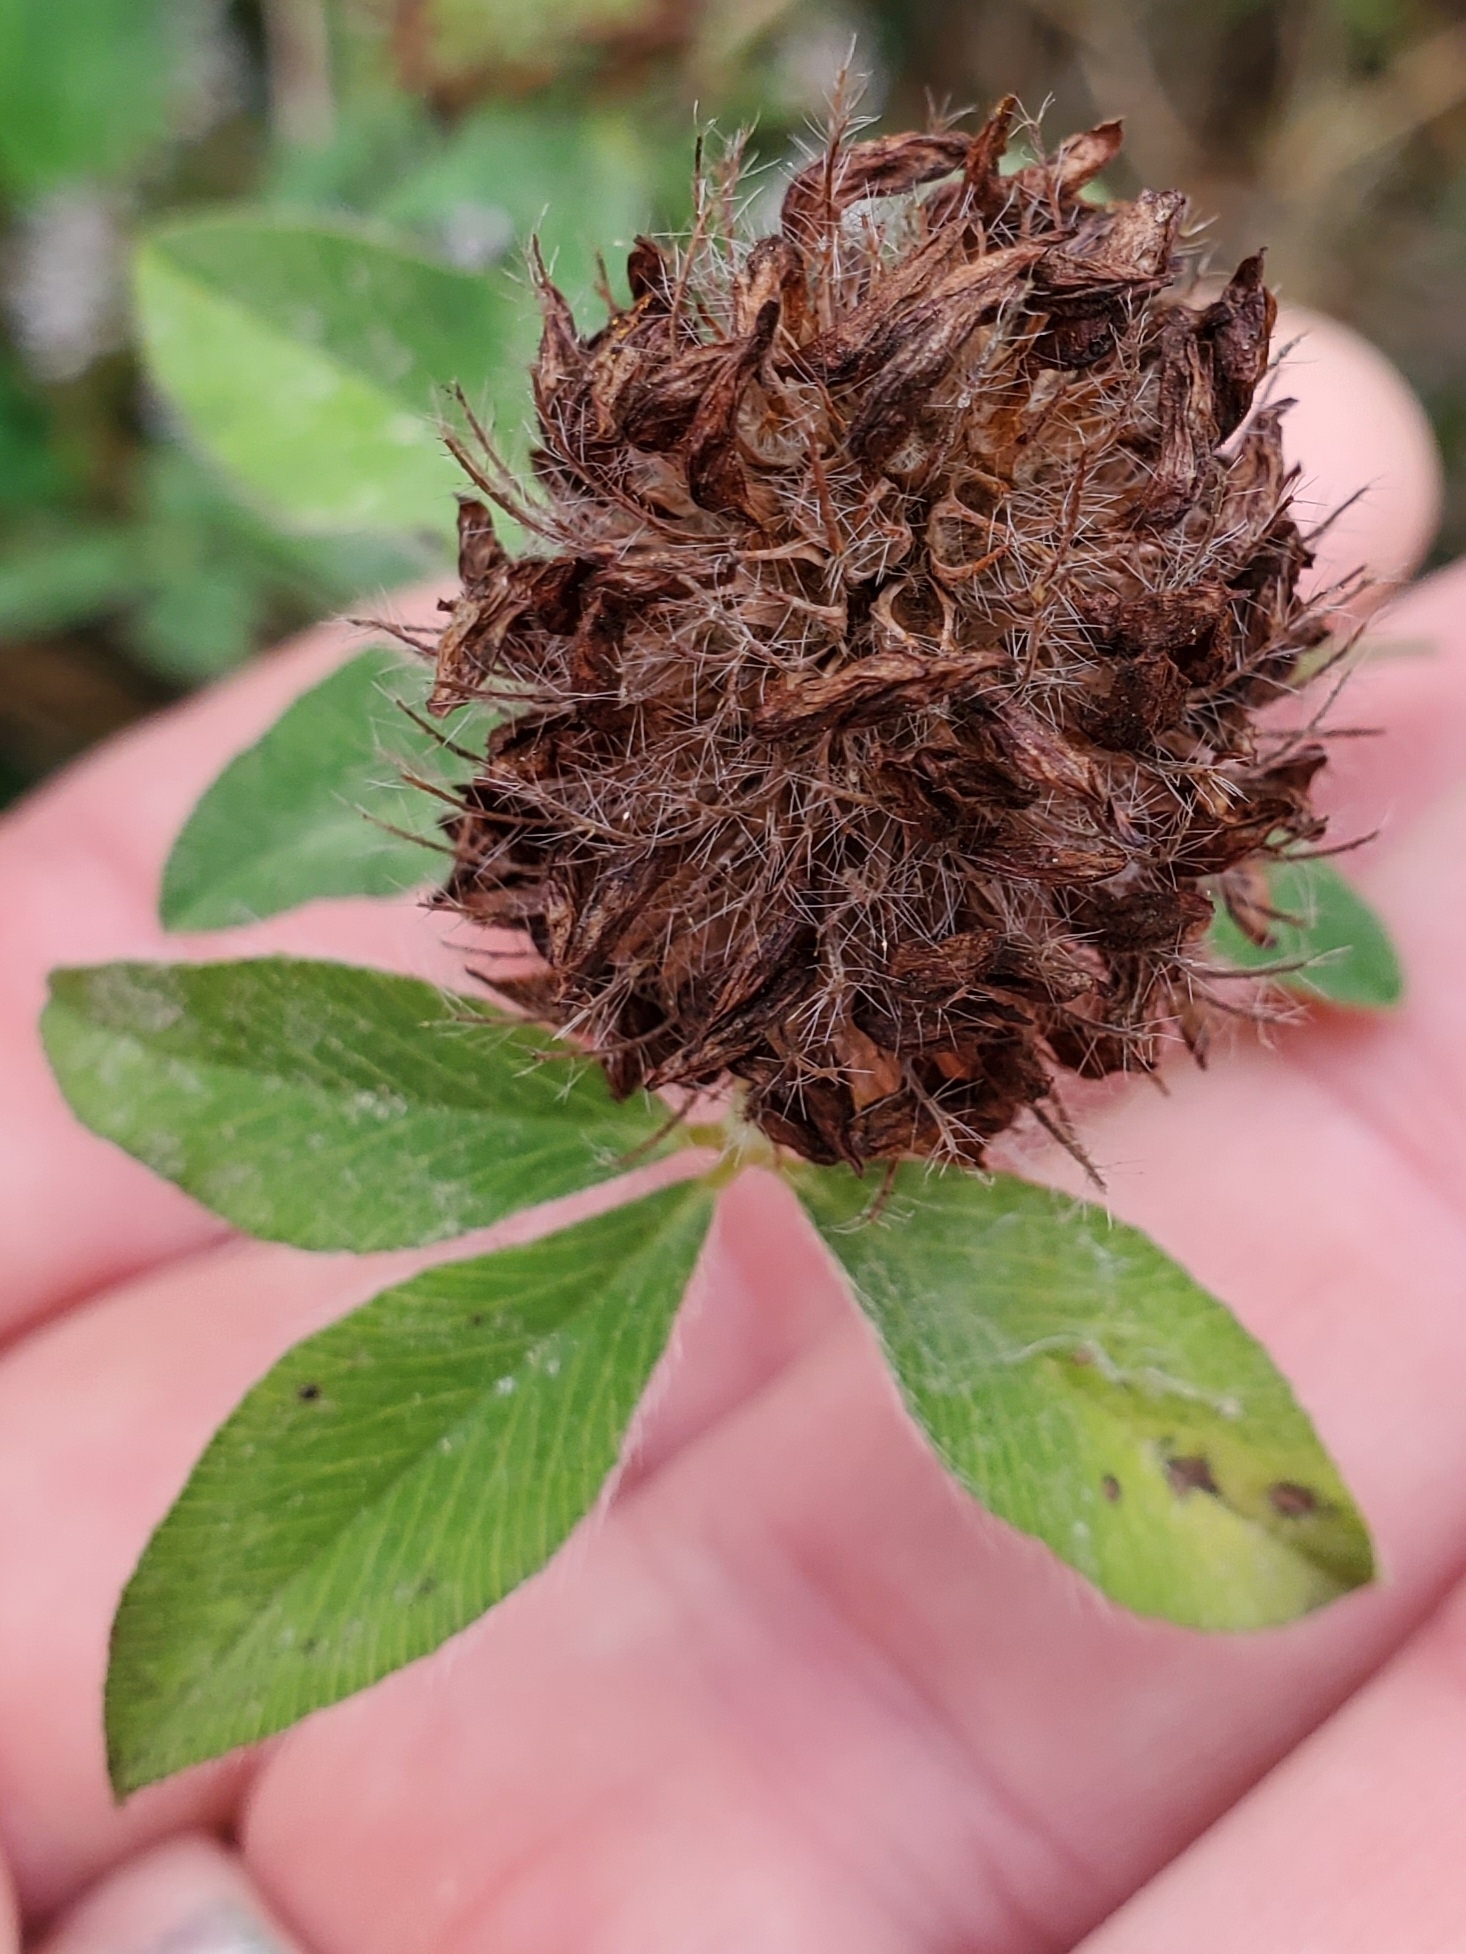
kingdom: Plantae
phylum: Tracheophyta
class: Magnoliopsida
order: Fabales
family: Fabaceae
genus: Trifolium
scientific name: Trifolium pratense
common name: Red clover
